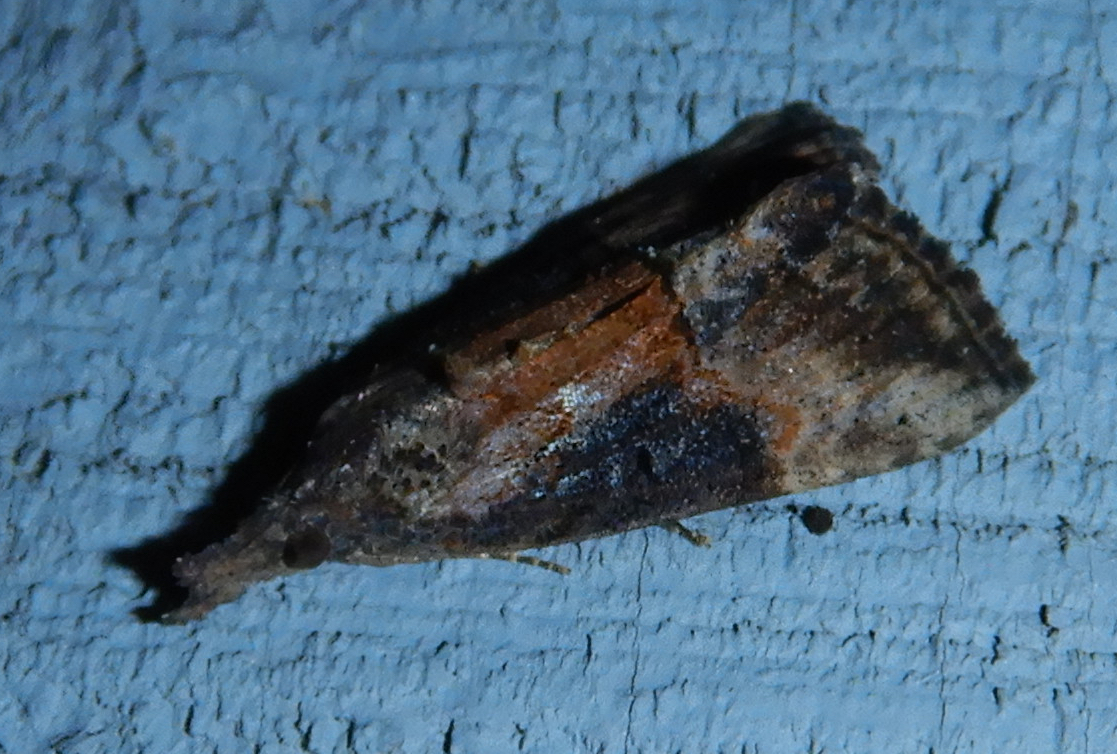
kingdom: Animalia
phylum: Arthropoda
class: Insecta
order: Lepidoptera
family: Erebidae
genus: Hypena
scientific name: Hypena scabra
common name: Green cloverworm
